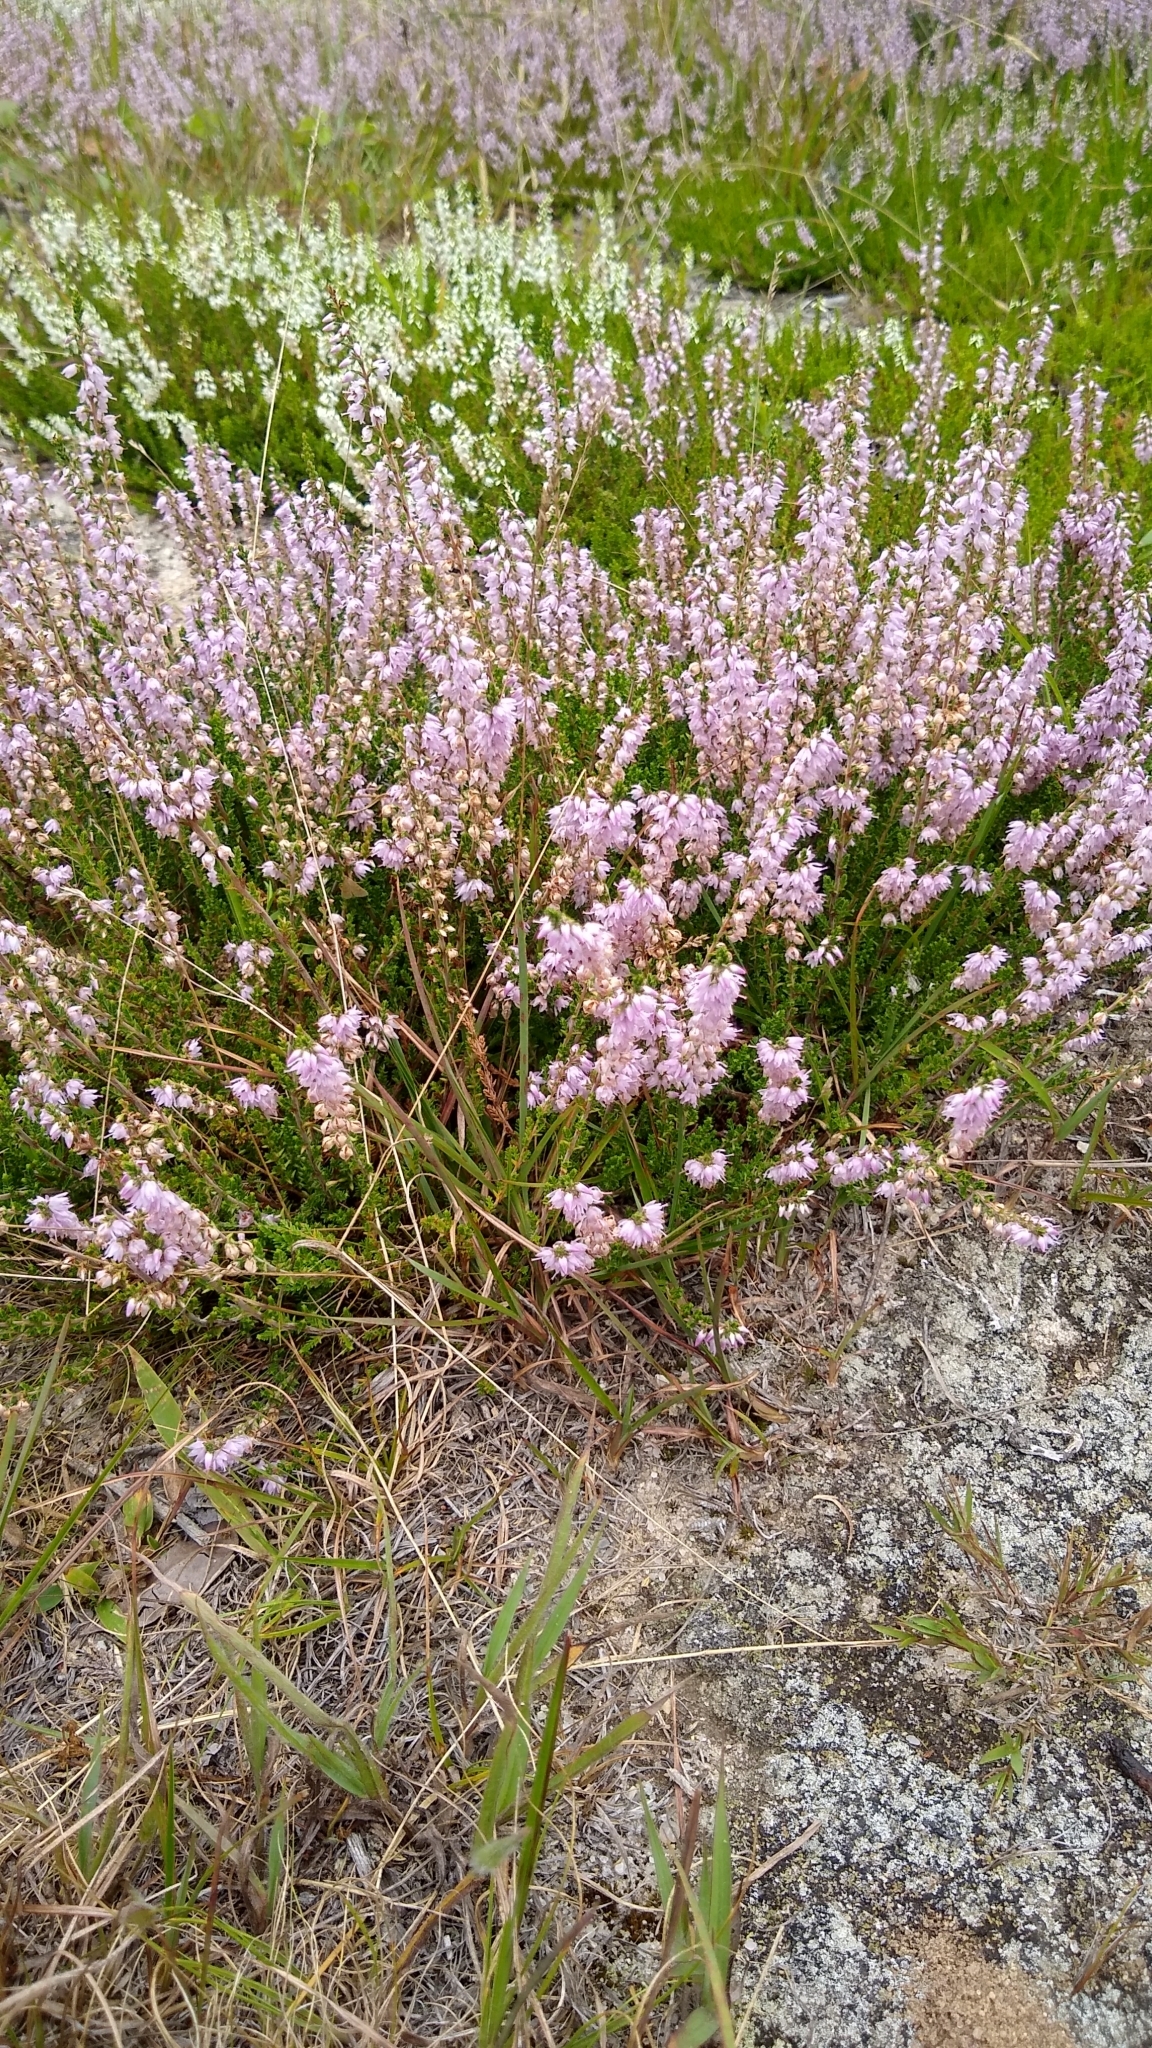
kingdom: Plantae
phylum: Tracheophyta
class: Magnoliopsida
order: Ericales
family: Ericaceae
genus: Calluna
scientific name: Calluna vulgaris
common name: Heather
